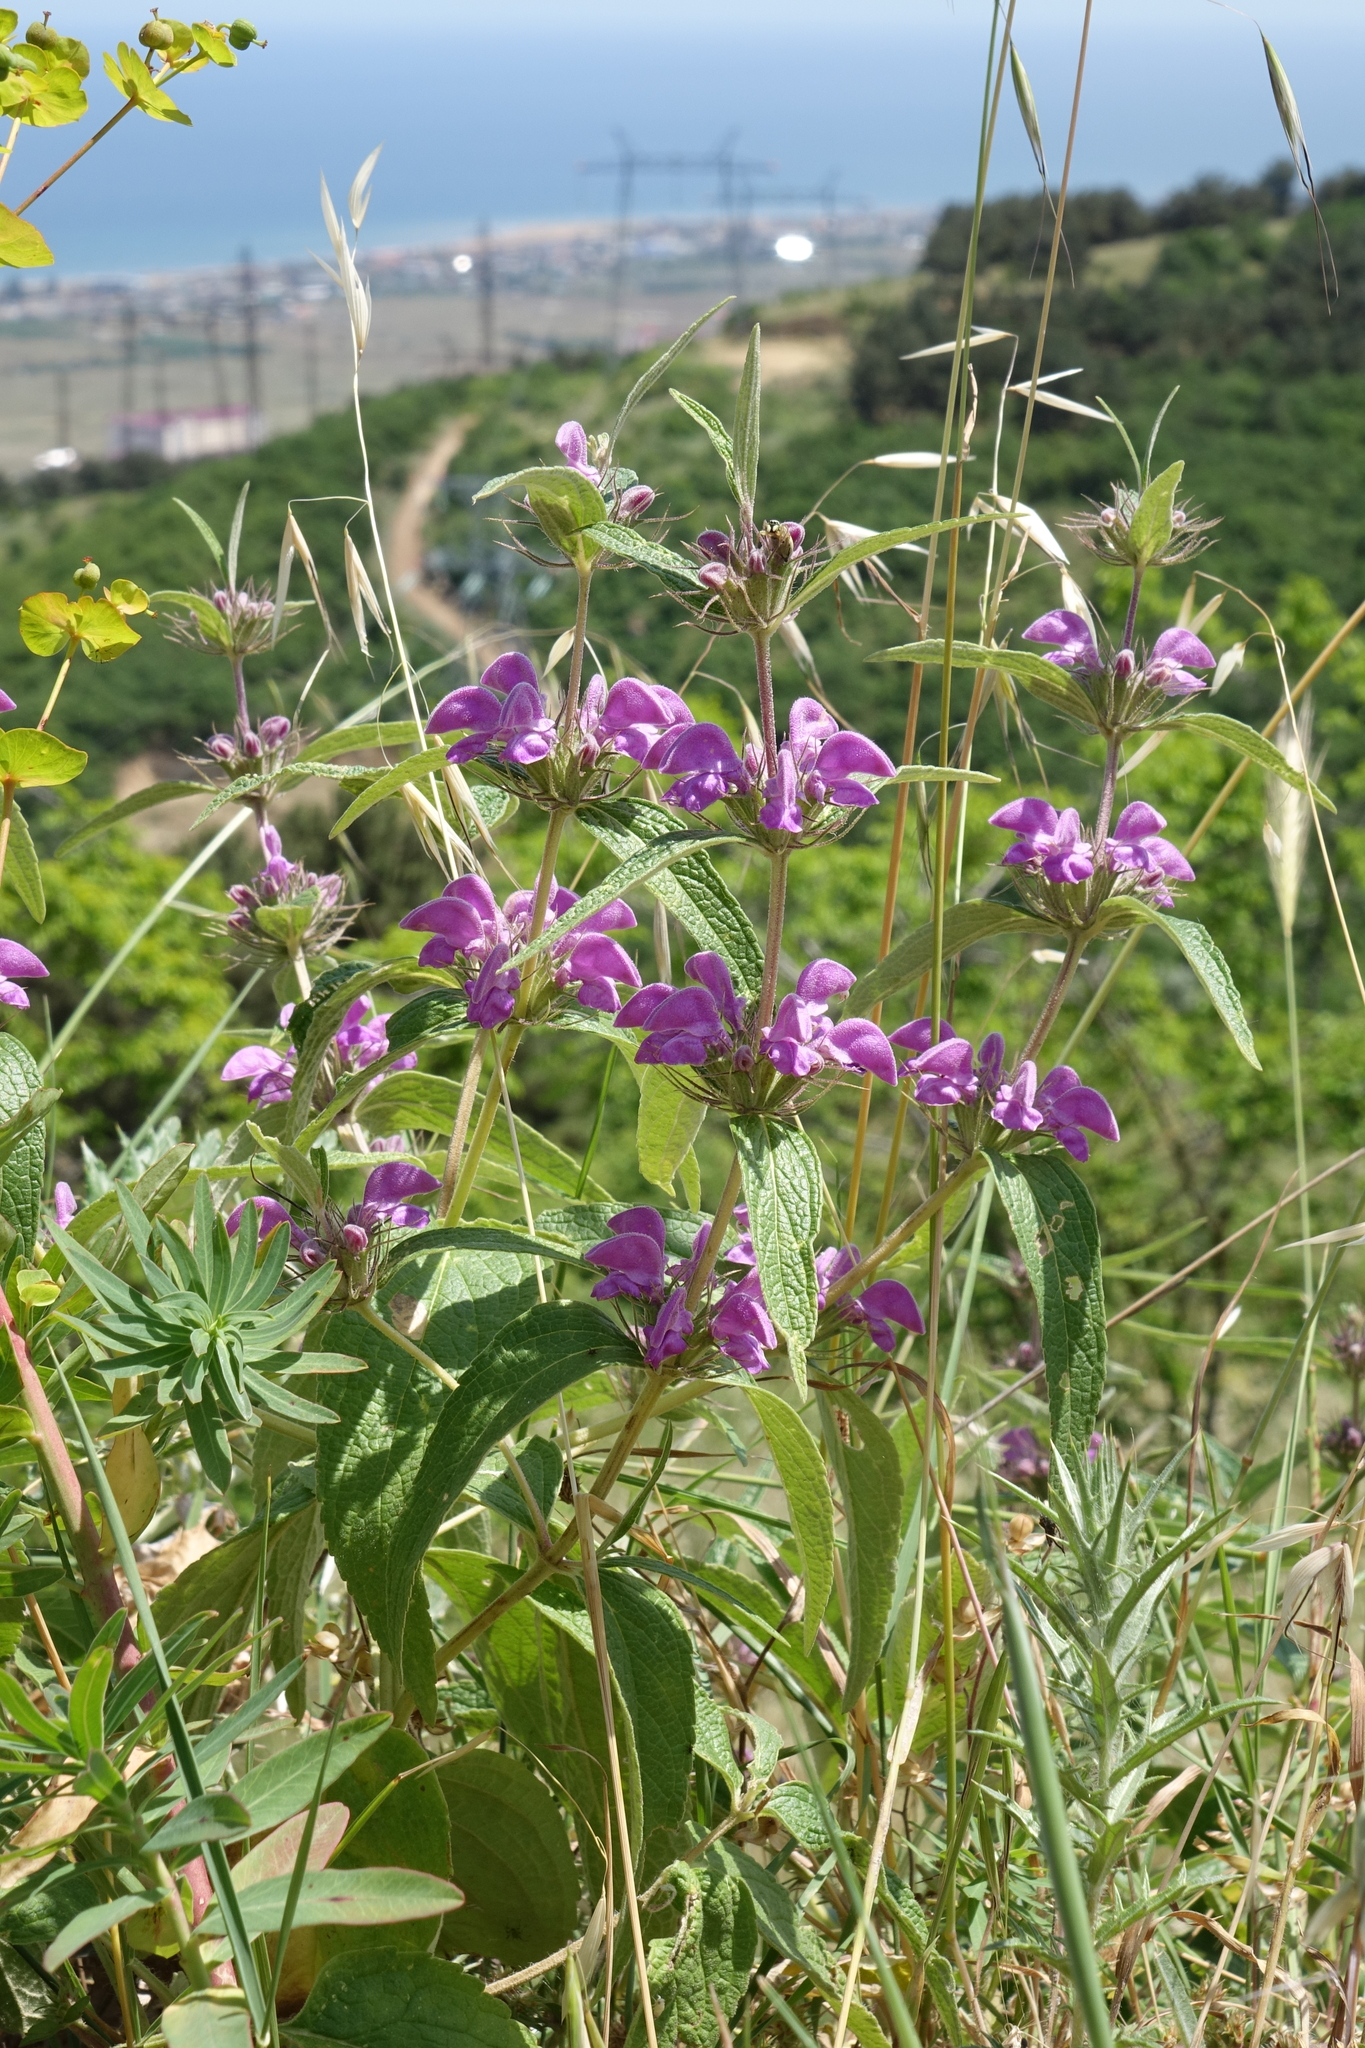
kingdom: Plantae
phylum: Tracheophyta
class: Magnoliopsida
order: Lamiales
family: Lamiaceae
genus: Phlomis
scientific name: Phlomis herba-venti
